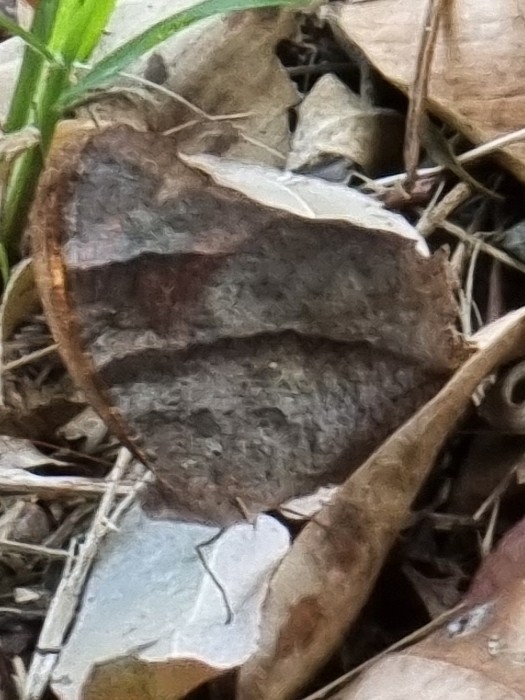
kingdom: Animalia
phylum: Arthropoda
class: Insecta
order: Lepidoptera
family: Nymphalidae
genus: Melanitis
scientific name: Melanitis leda
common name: Twilight brown
